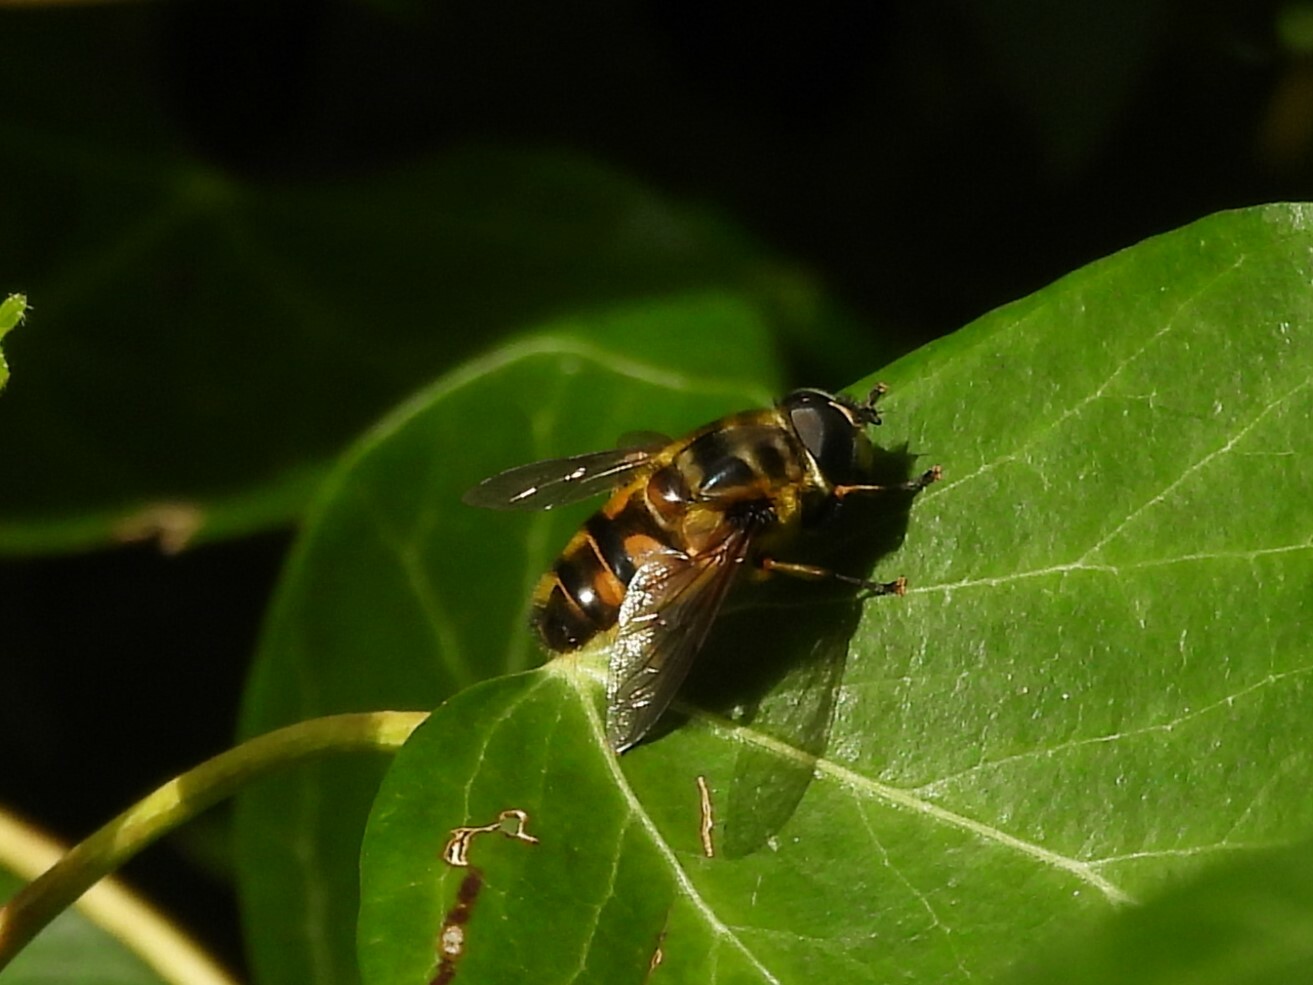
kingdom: Animalia
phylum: Arthropoda
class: Insecta
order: Diptera
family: Syrphidae
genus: Myathropa
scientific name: Myathropa florea
